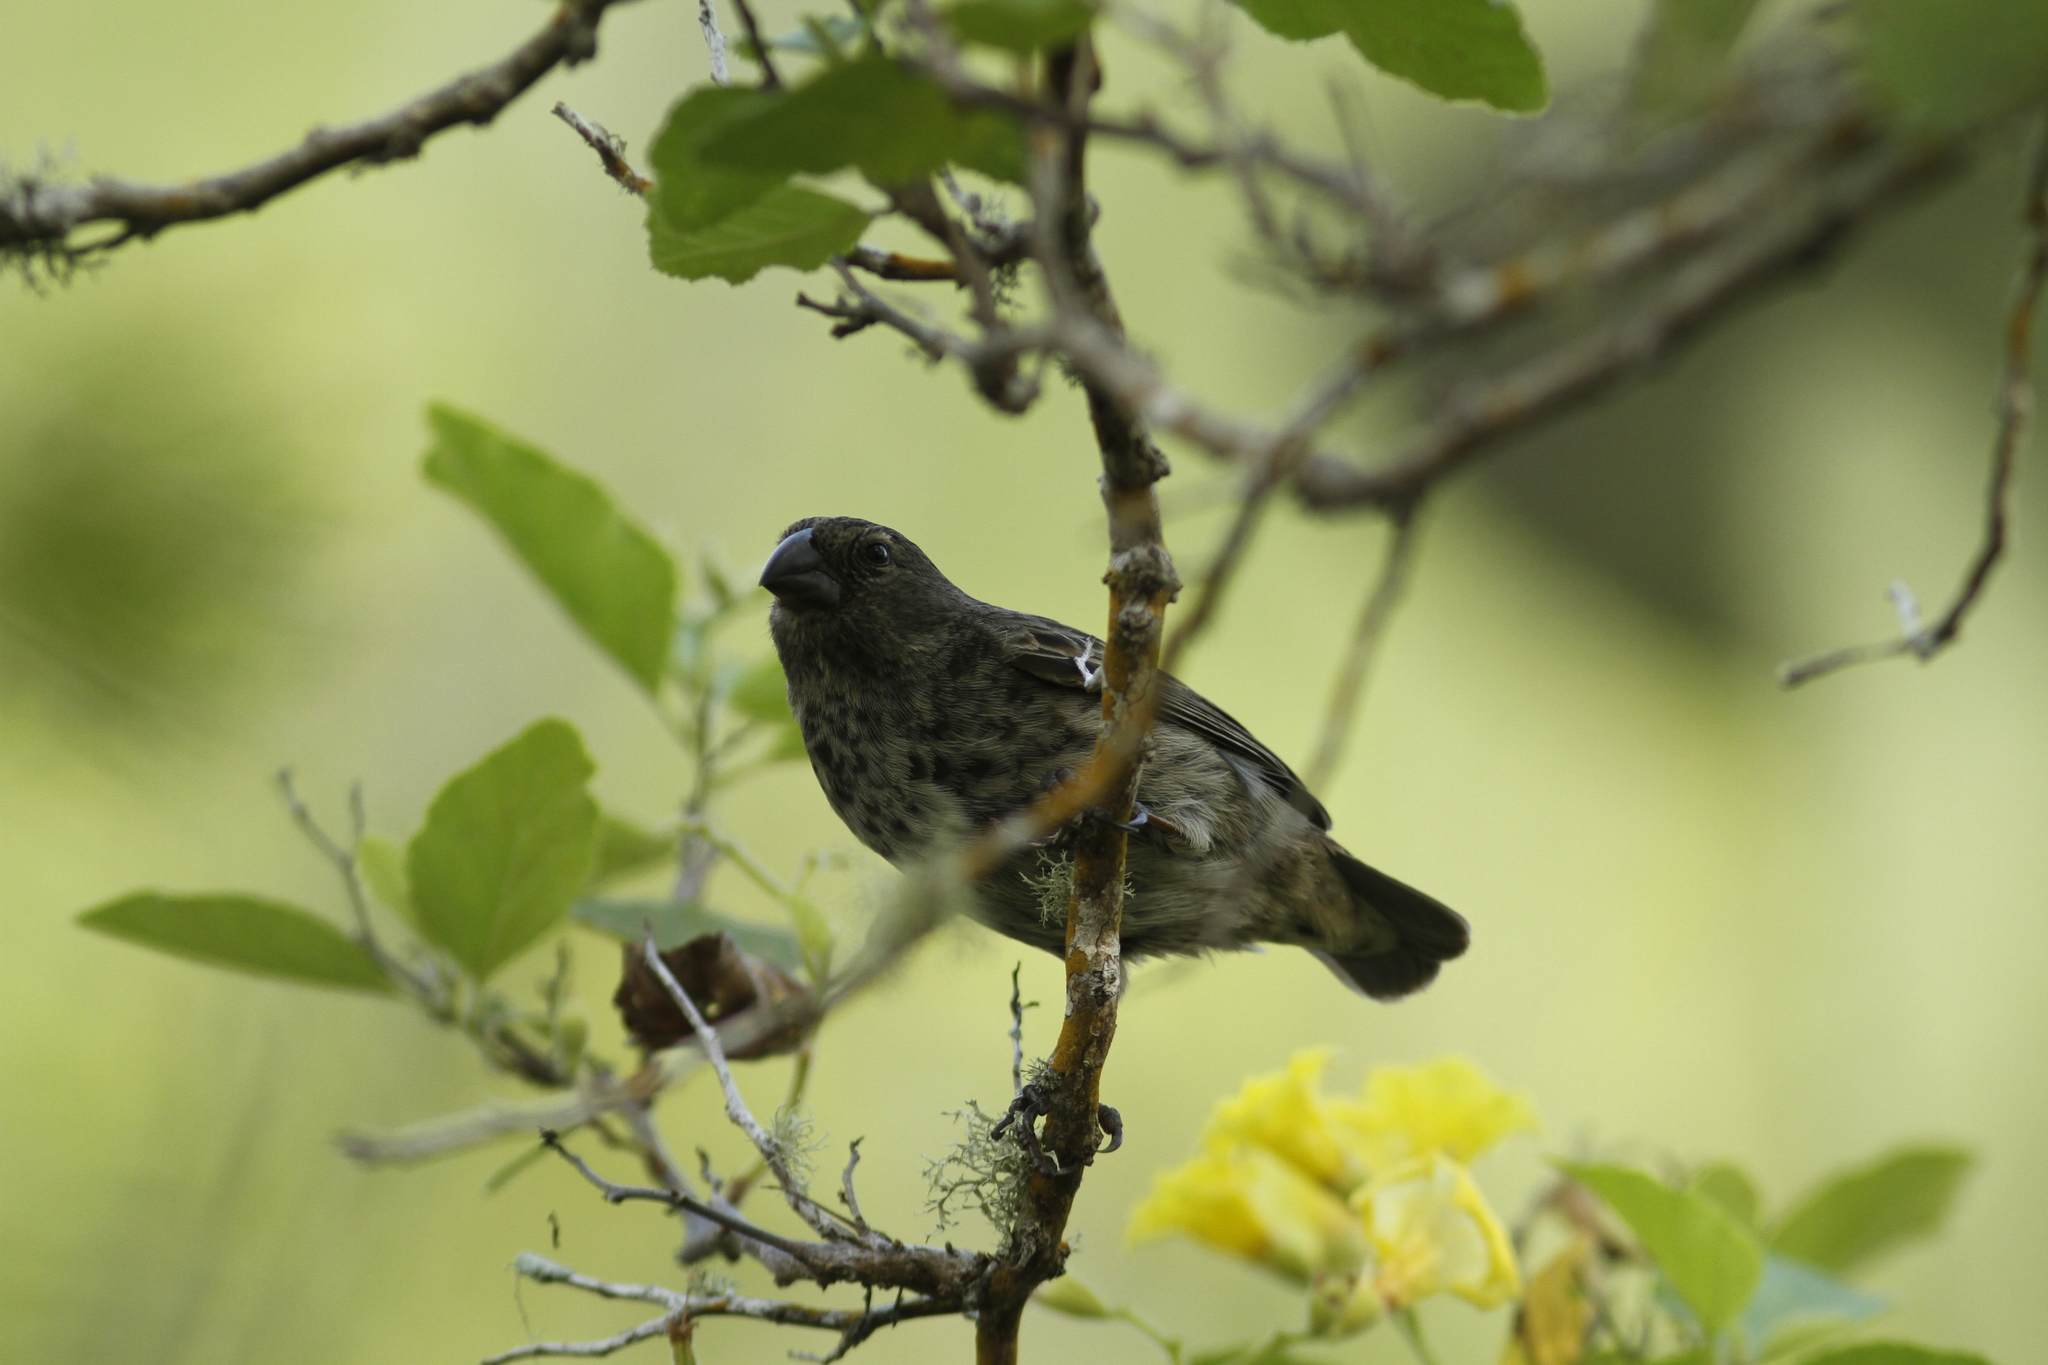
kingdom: Animalia
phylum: Chordata
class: Aves
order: Passeriformes
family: Thraupidae
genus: Geospiza
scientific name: Geospiza fortis
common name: Medium ground finch
